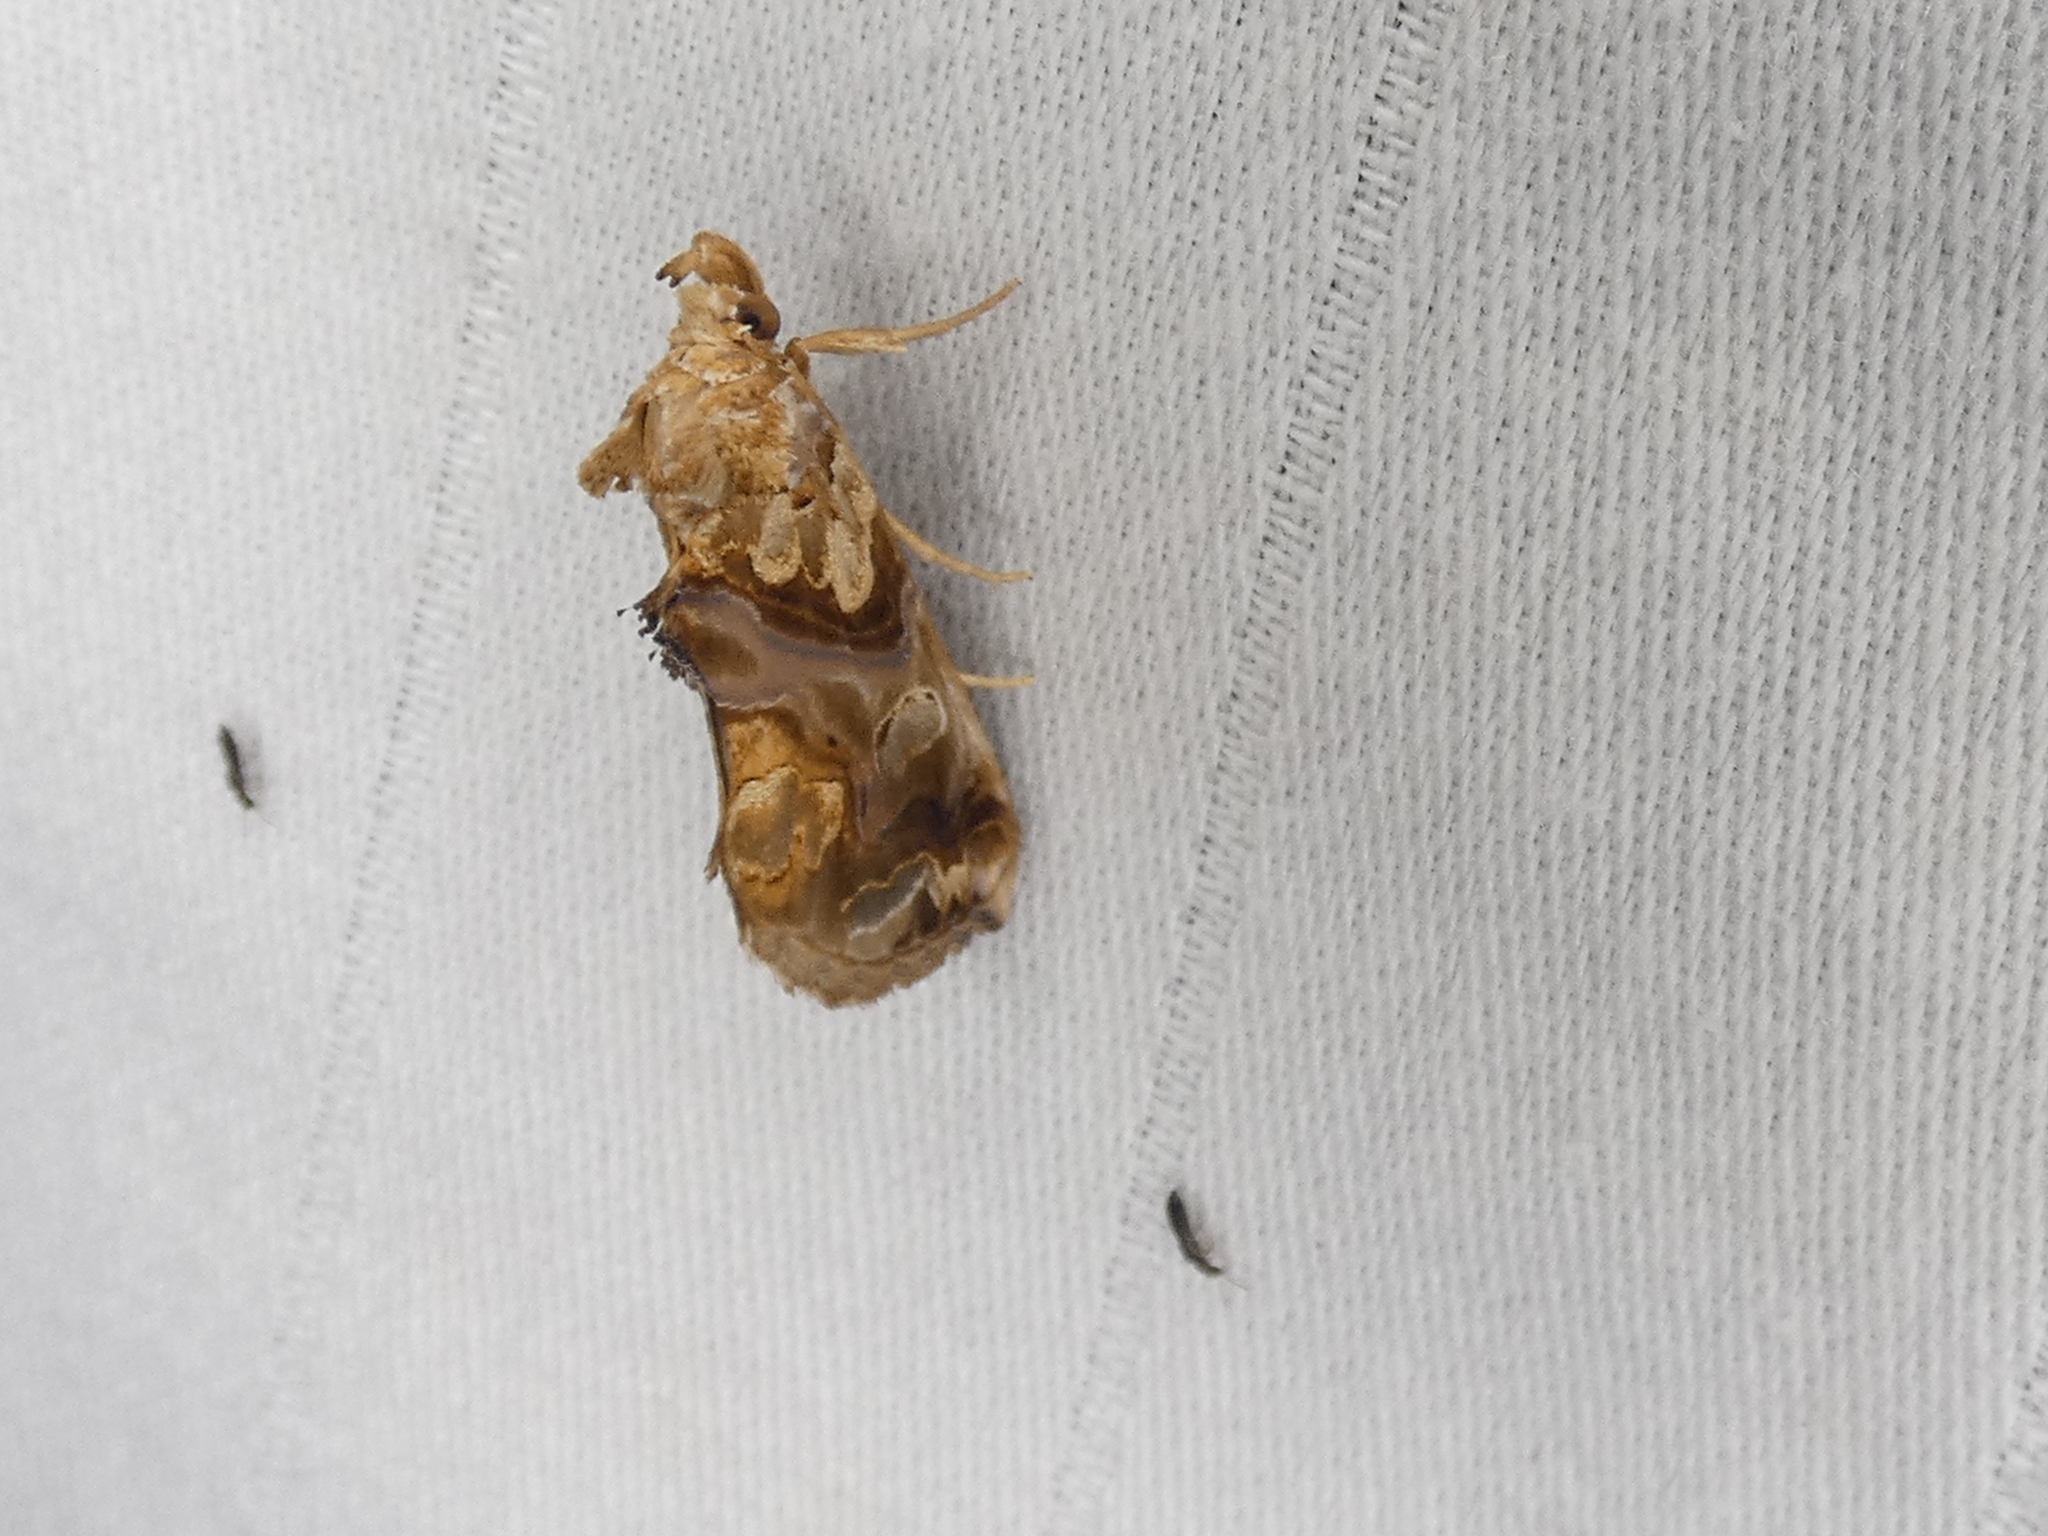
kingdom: Animalia
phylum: Arthropoda
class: Insecta
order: Lepidoptera
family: Erebidae
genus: Plusiodonta
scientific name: Plusiodonta compressipalpis
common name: Moonseed moth
